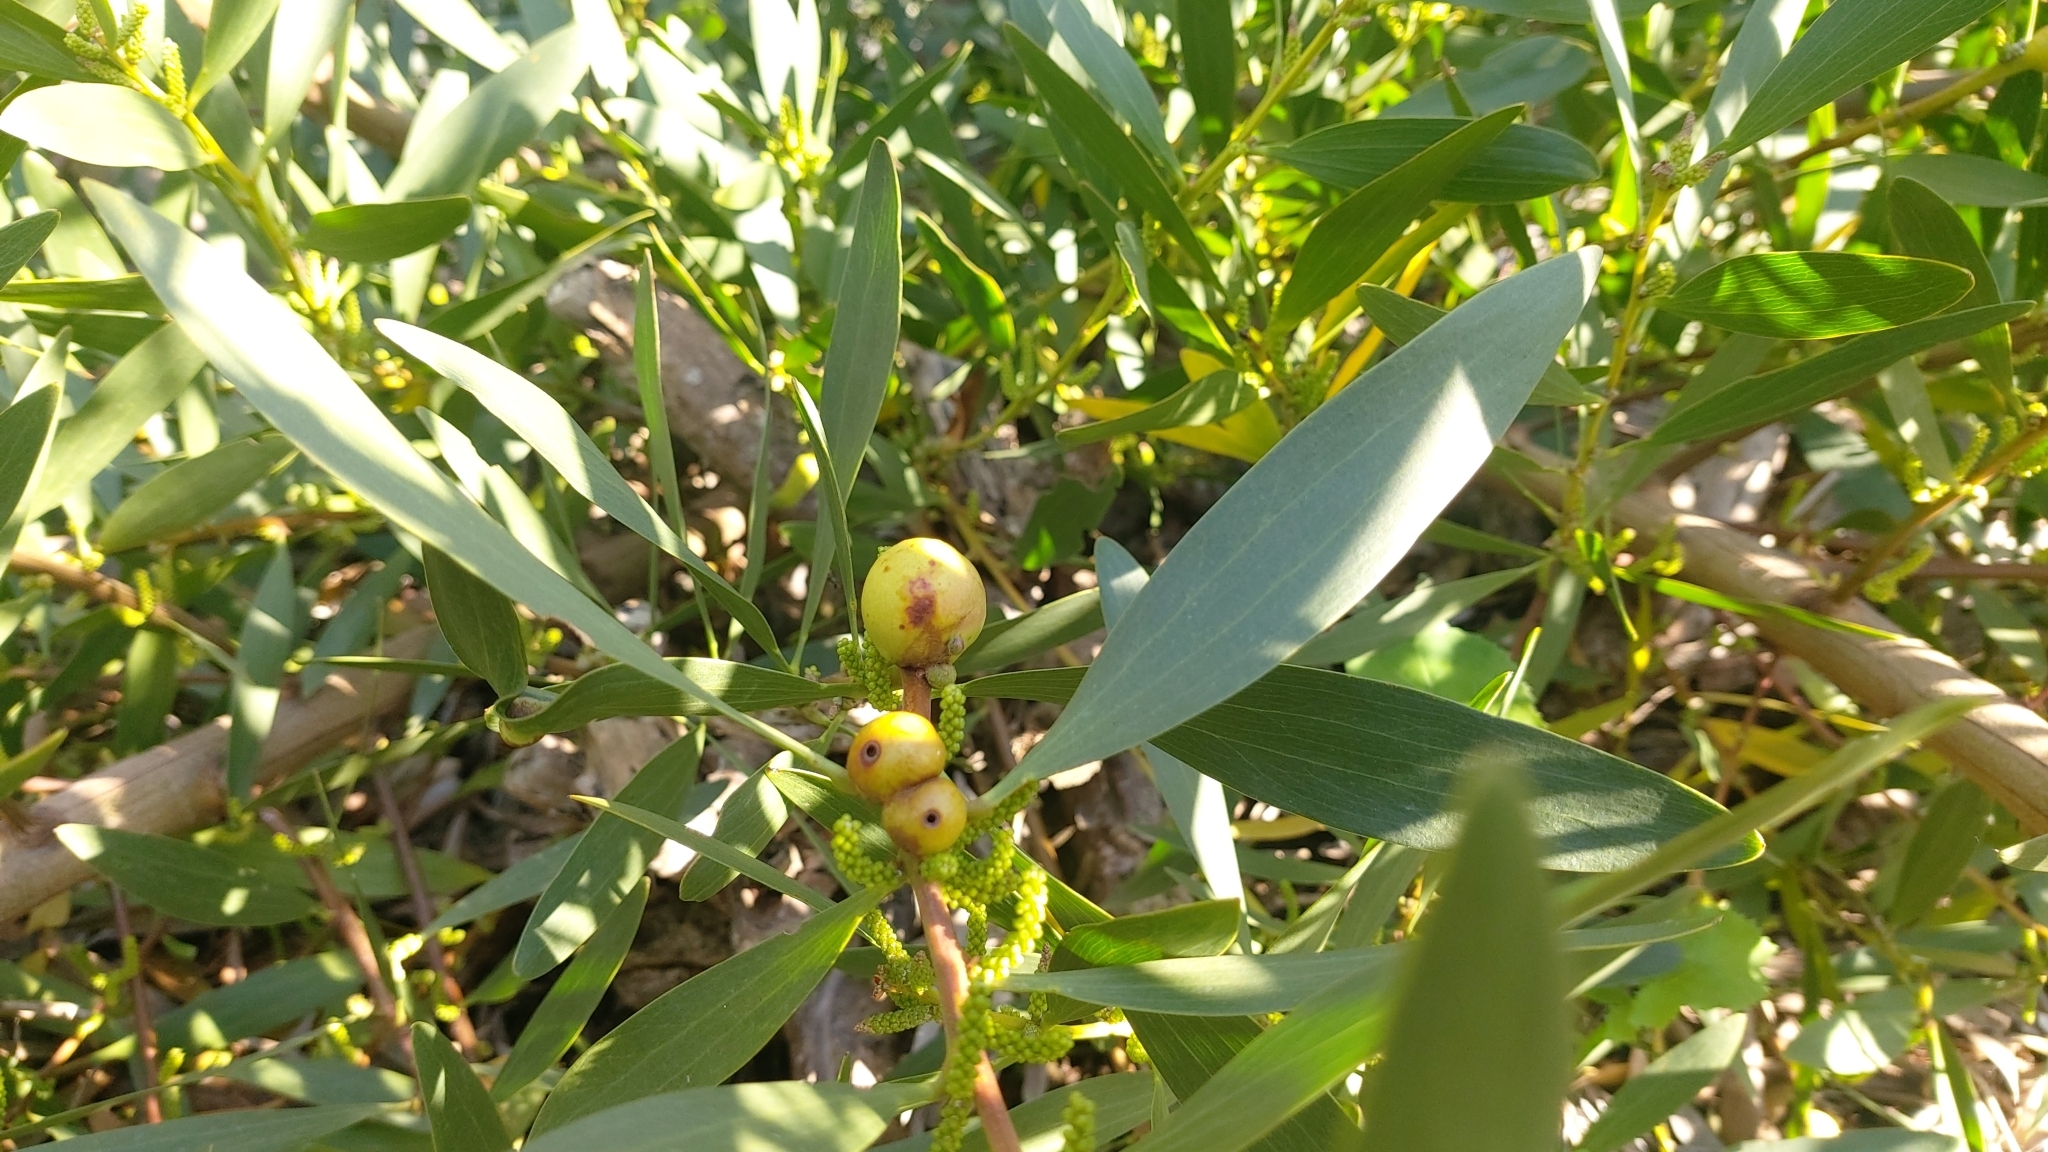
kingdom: Animalia
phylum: Arthropoda
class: Insecta
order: Hymenoptera
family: Pteromalidae
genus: Trichilogaster
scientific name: Trichilogaster acaciaelongifoliae
